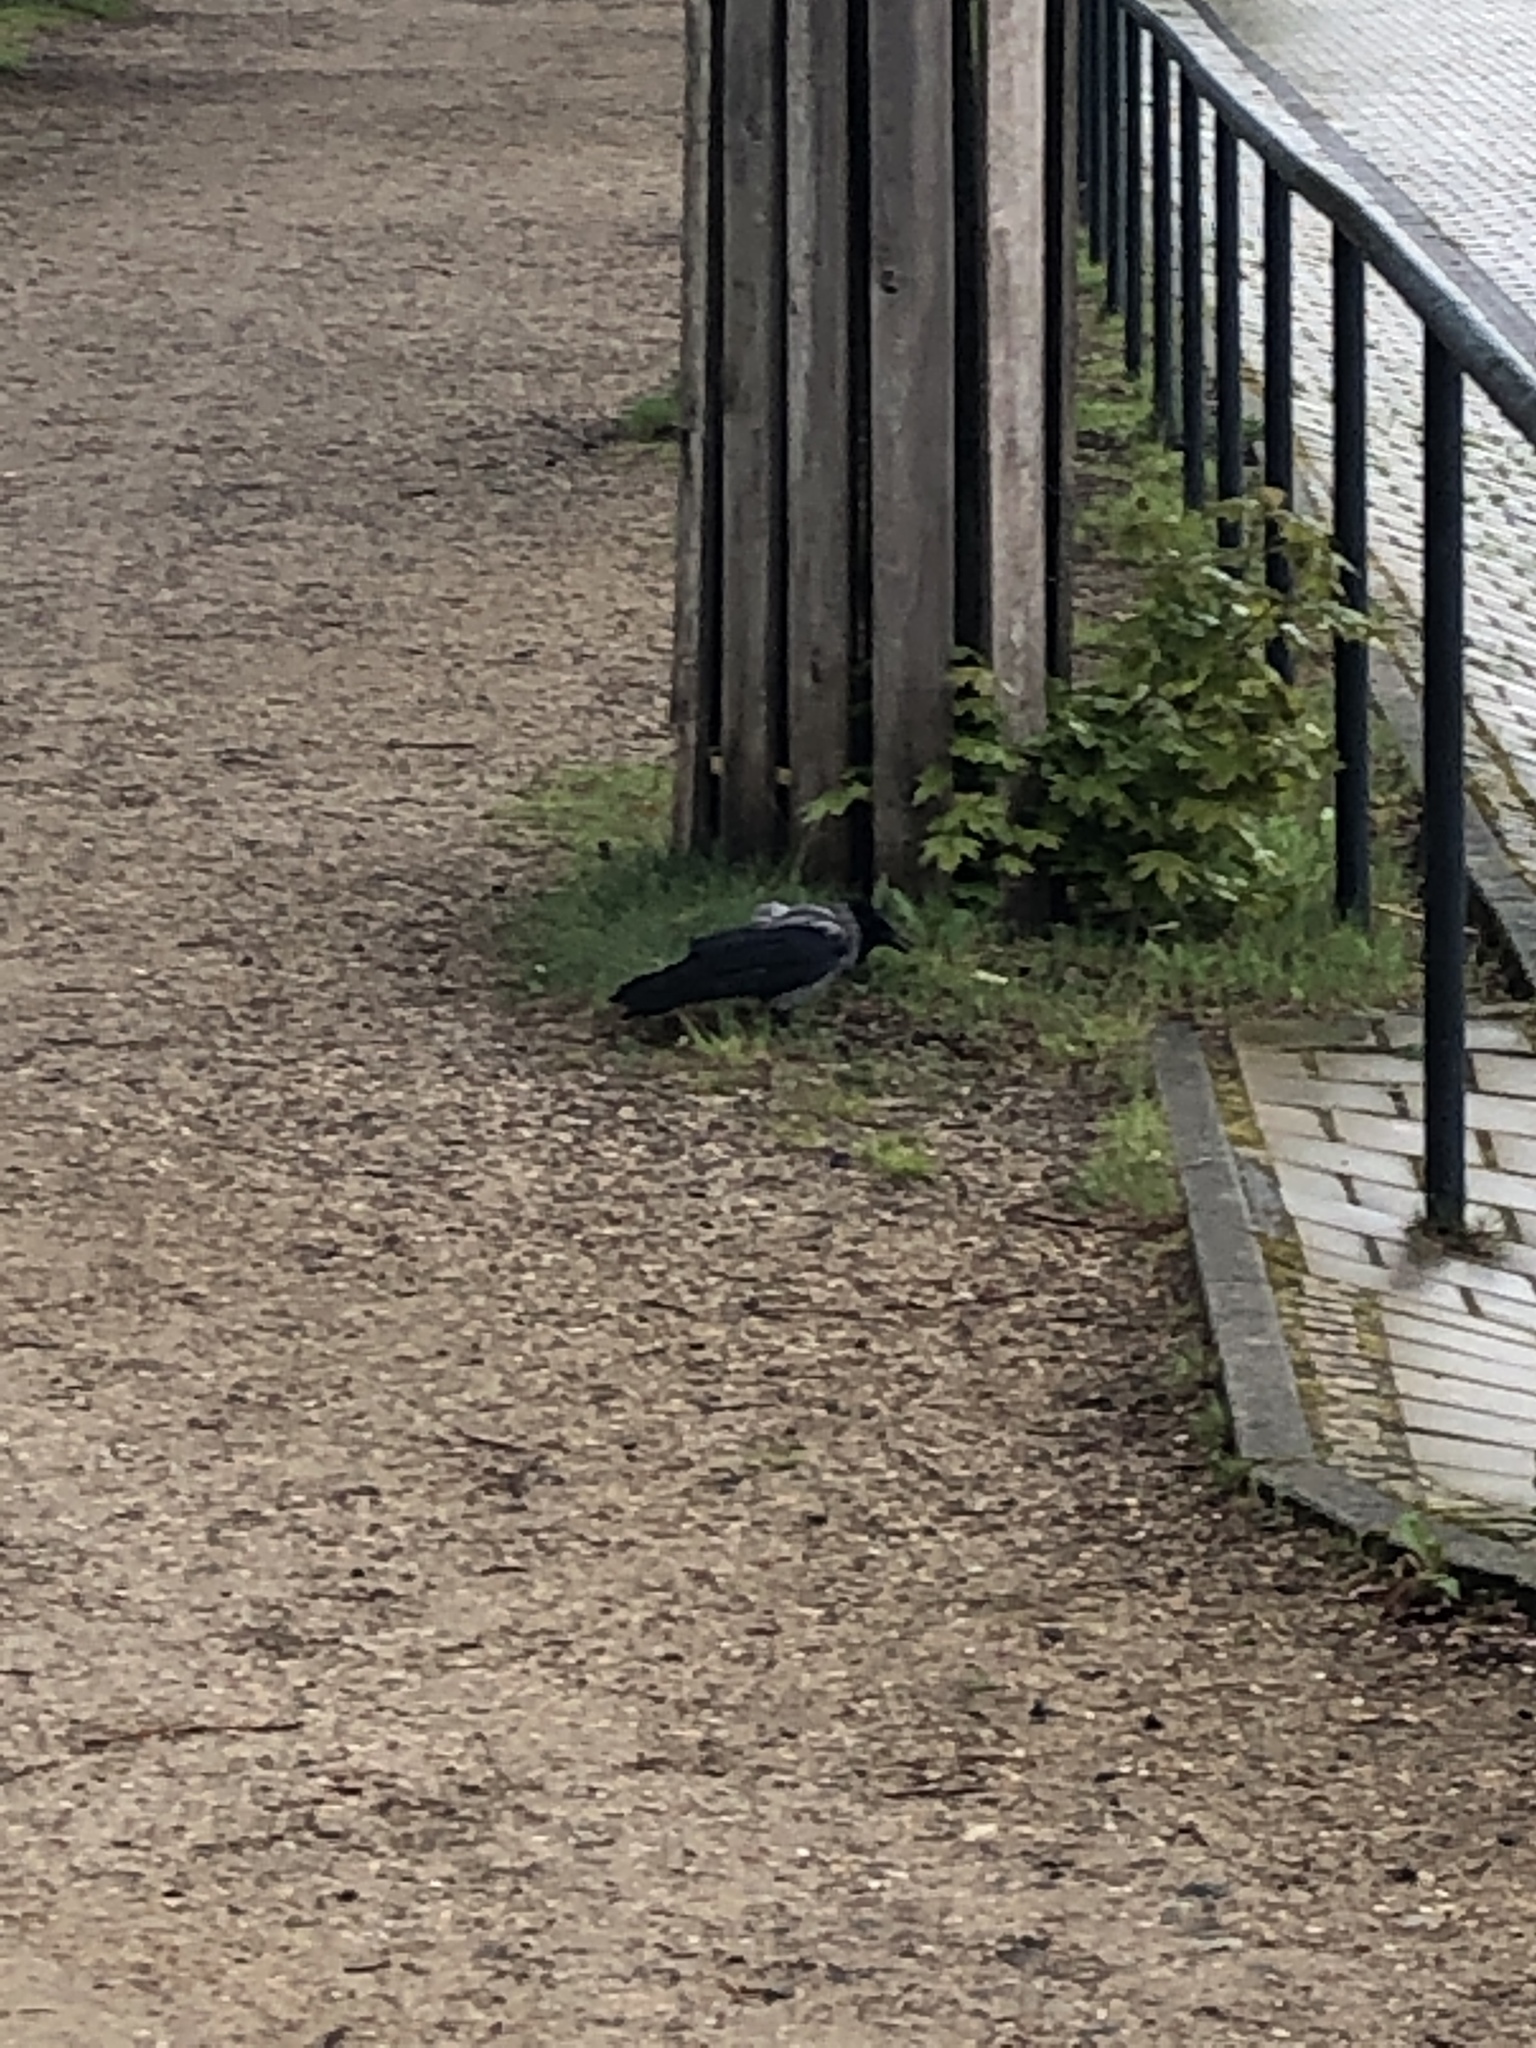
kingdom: Animalia
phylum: Chordata
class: Aves
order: Passeriformes
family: Corvidae
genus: Corvus
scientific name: Corvus cornix
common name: Hooded crow
